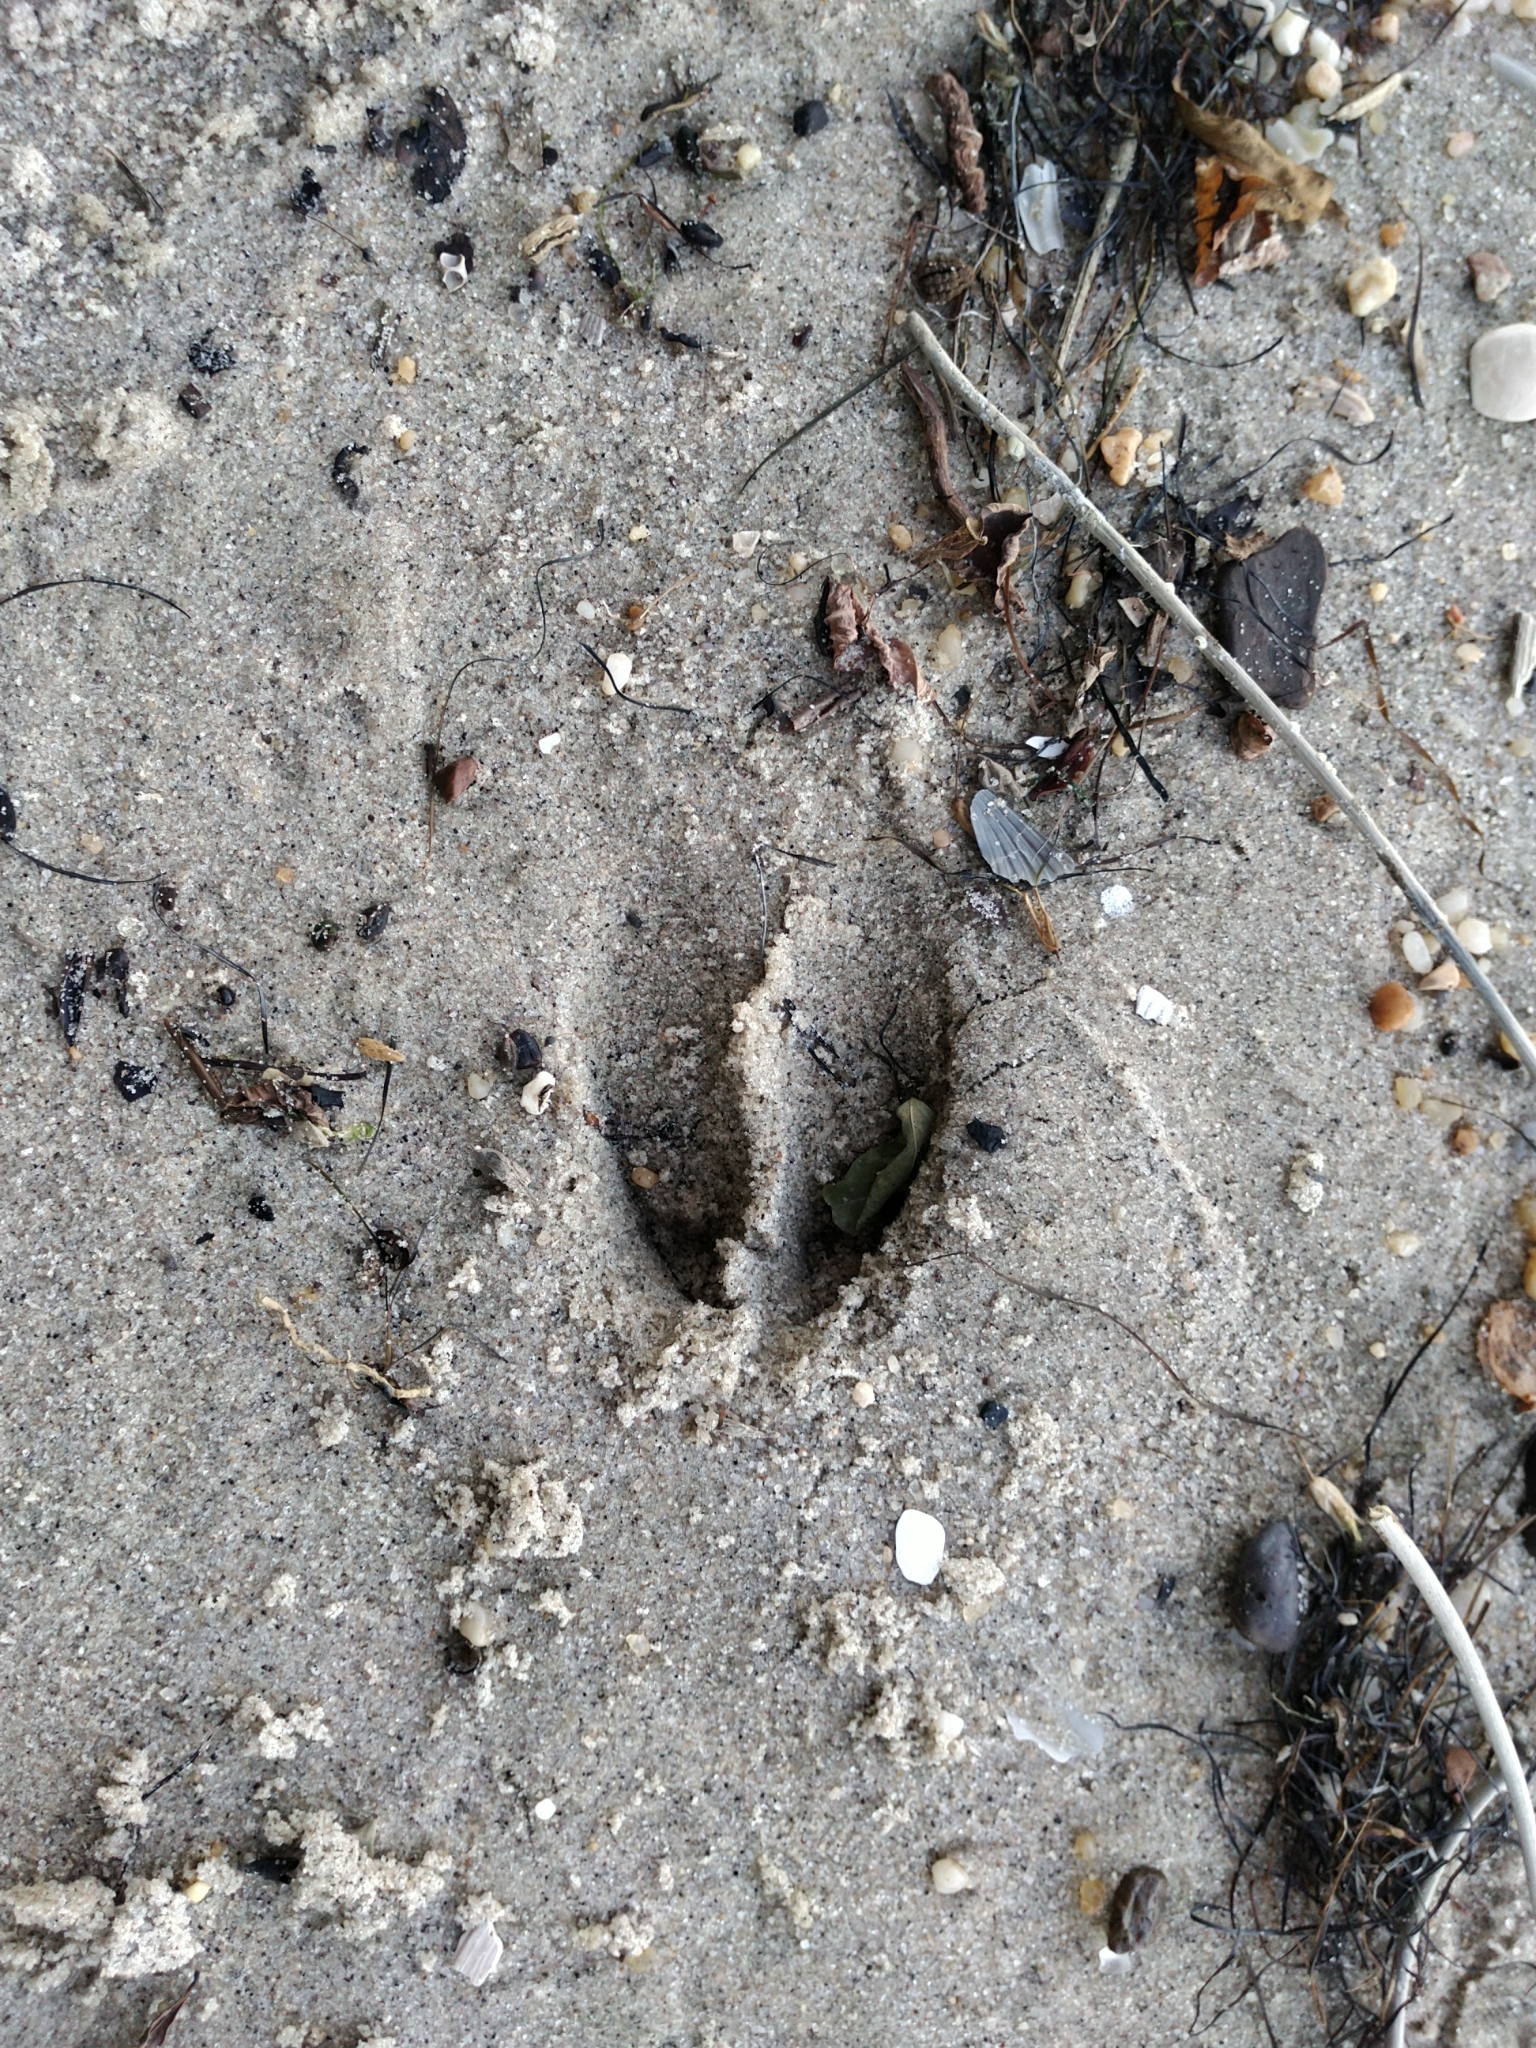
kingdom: Animalia
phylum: Chordata
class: Mammalia
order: Artiodactyla
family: Cervidae
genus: Odocoileus
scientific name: Odocoileus virginianus
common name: White-tailed deer
